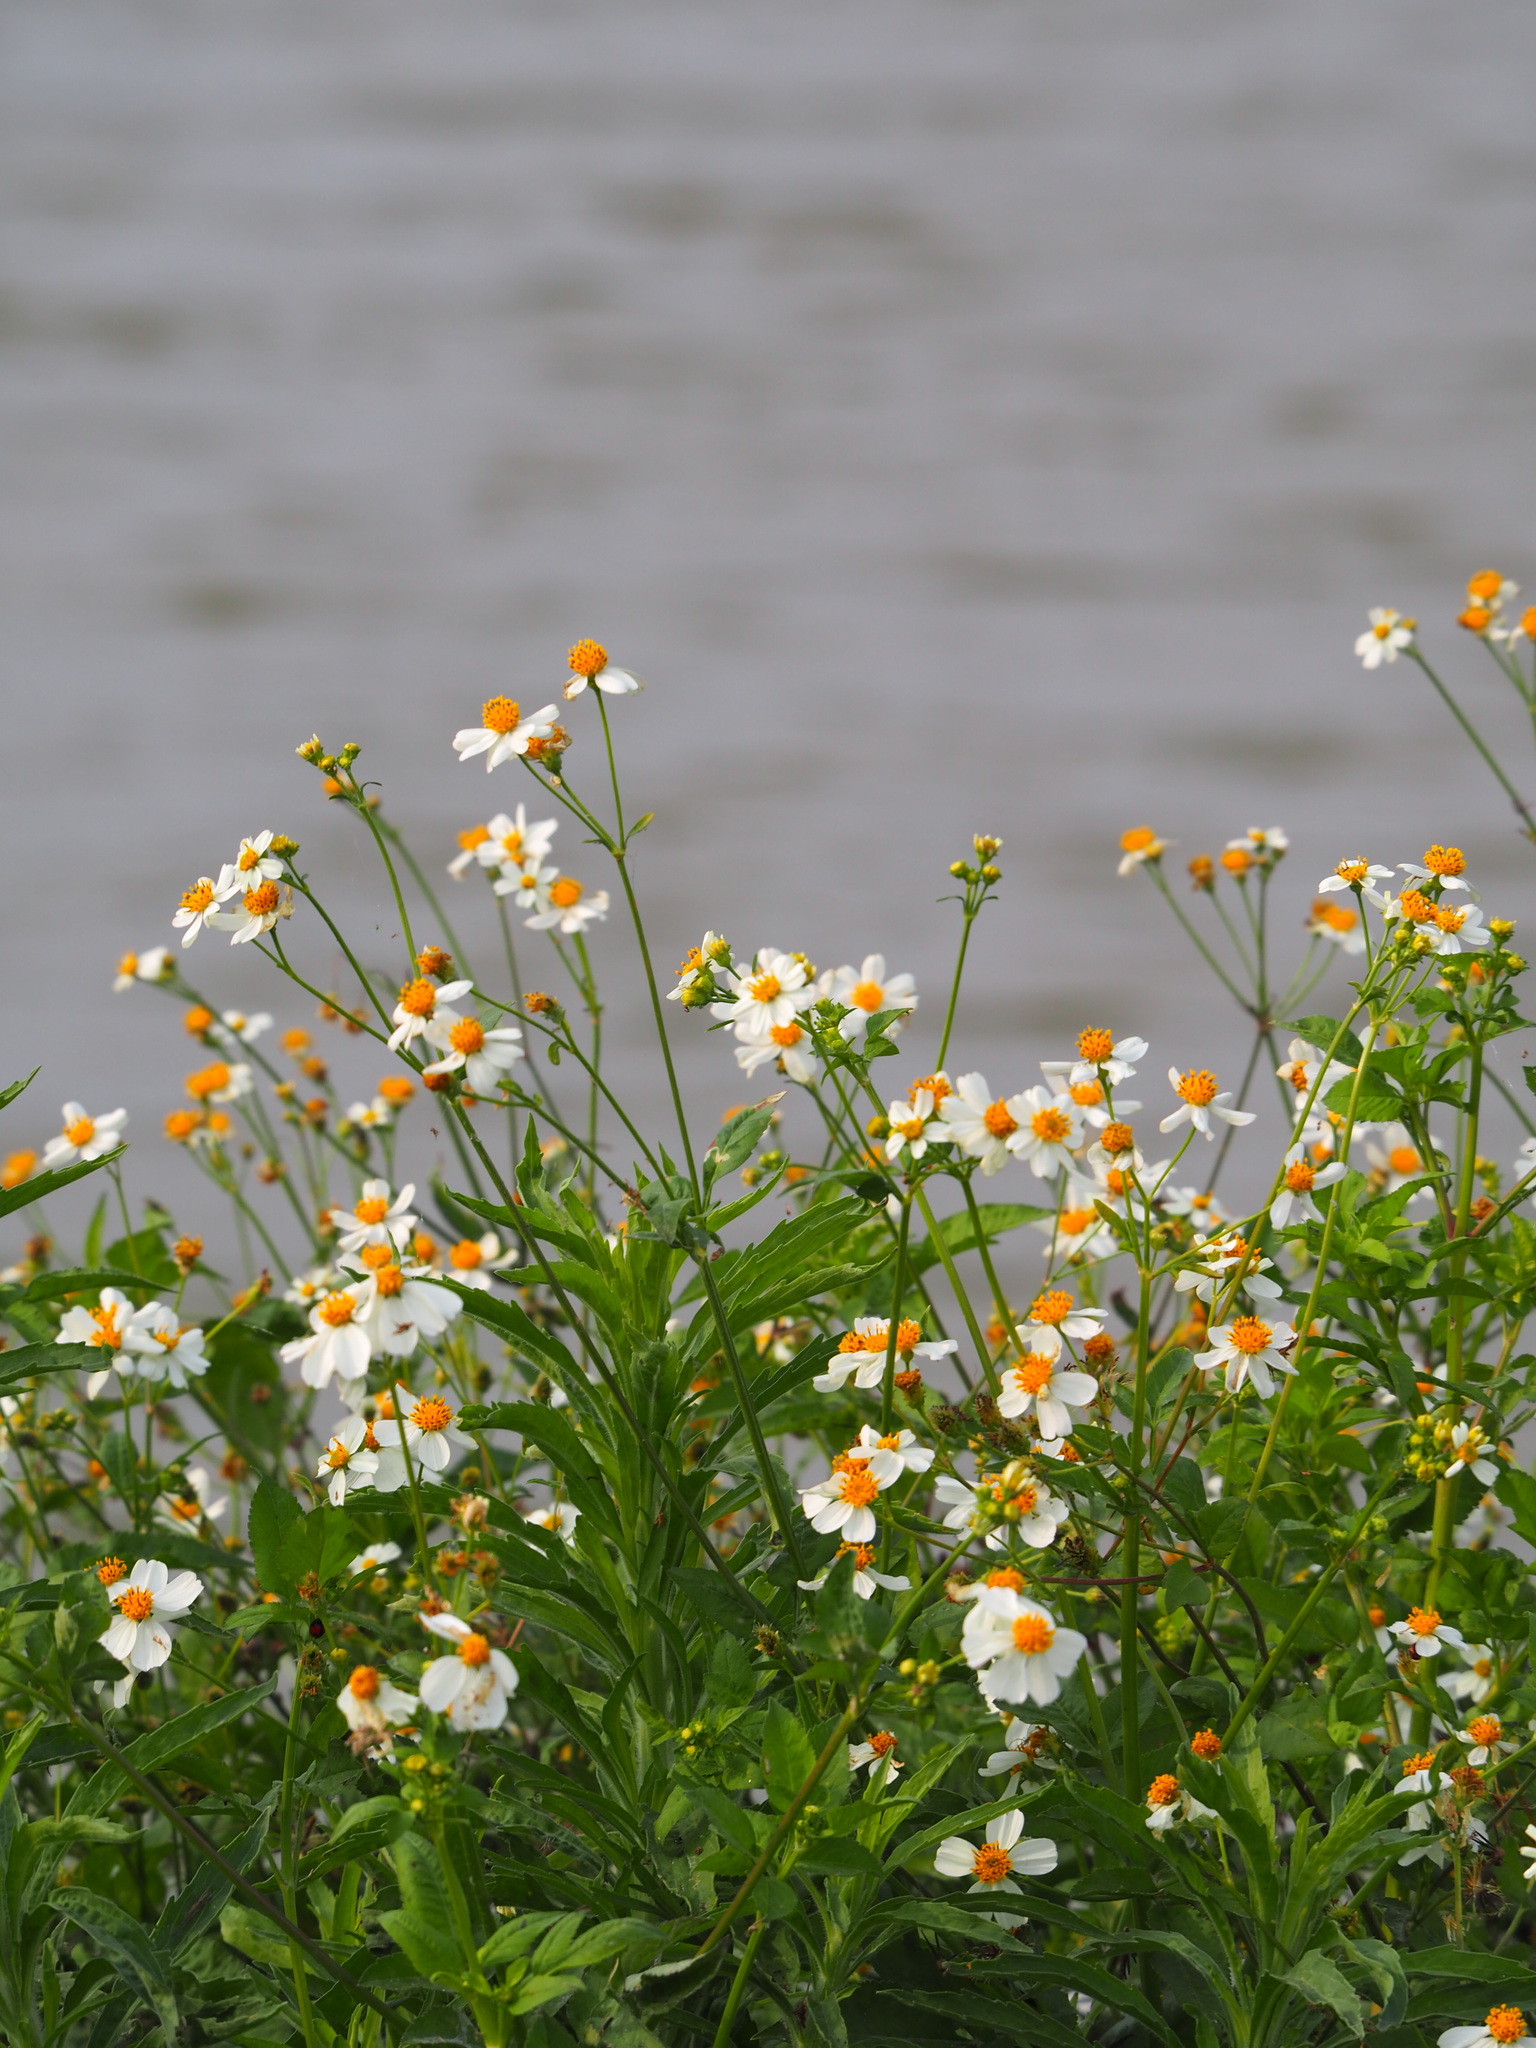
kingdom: Plantae
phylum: Tracheophyta
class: Magnoliopsida
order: Asterales
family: Asteraceae
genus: Bidens
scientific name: Bidens alba
